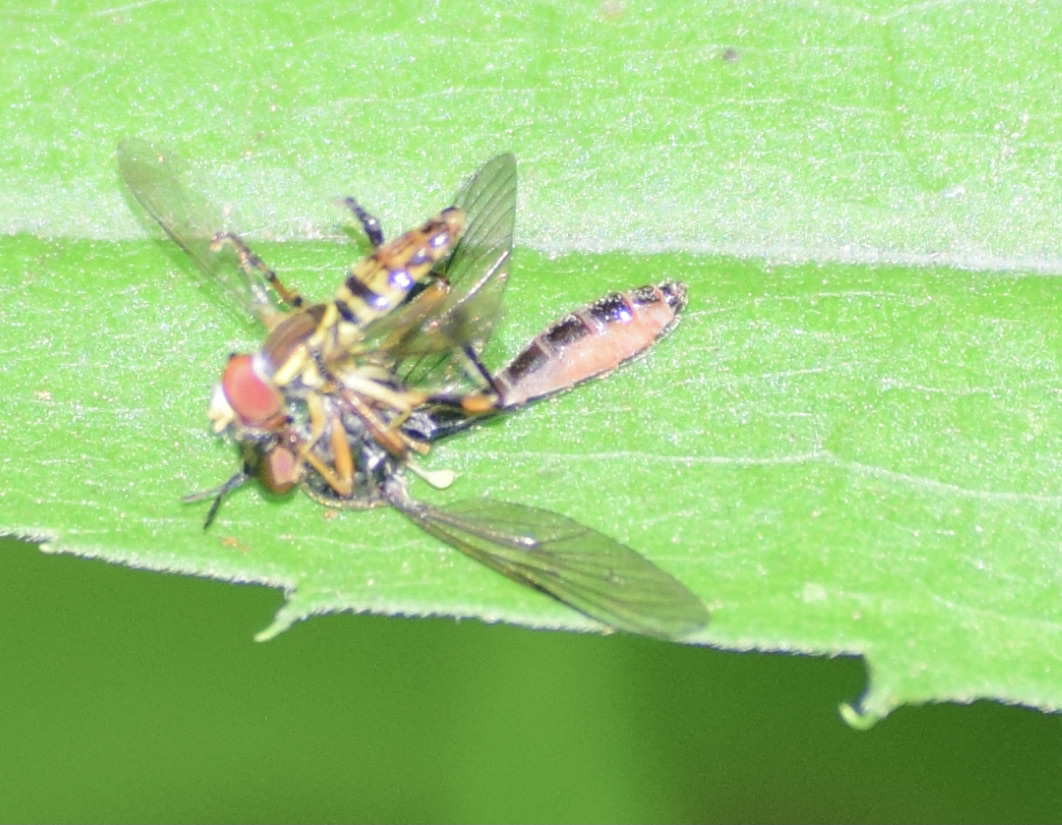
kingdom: Animalia
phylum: Arthropoda
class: Insecta
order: Diptera
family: Syrphidae
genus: Toxomerus
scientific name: Toxomerus geminatus
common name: Eastern calligrapher
